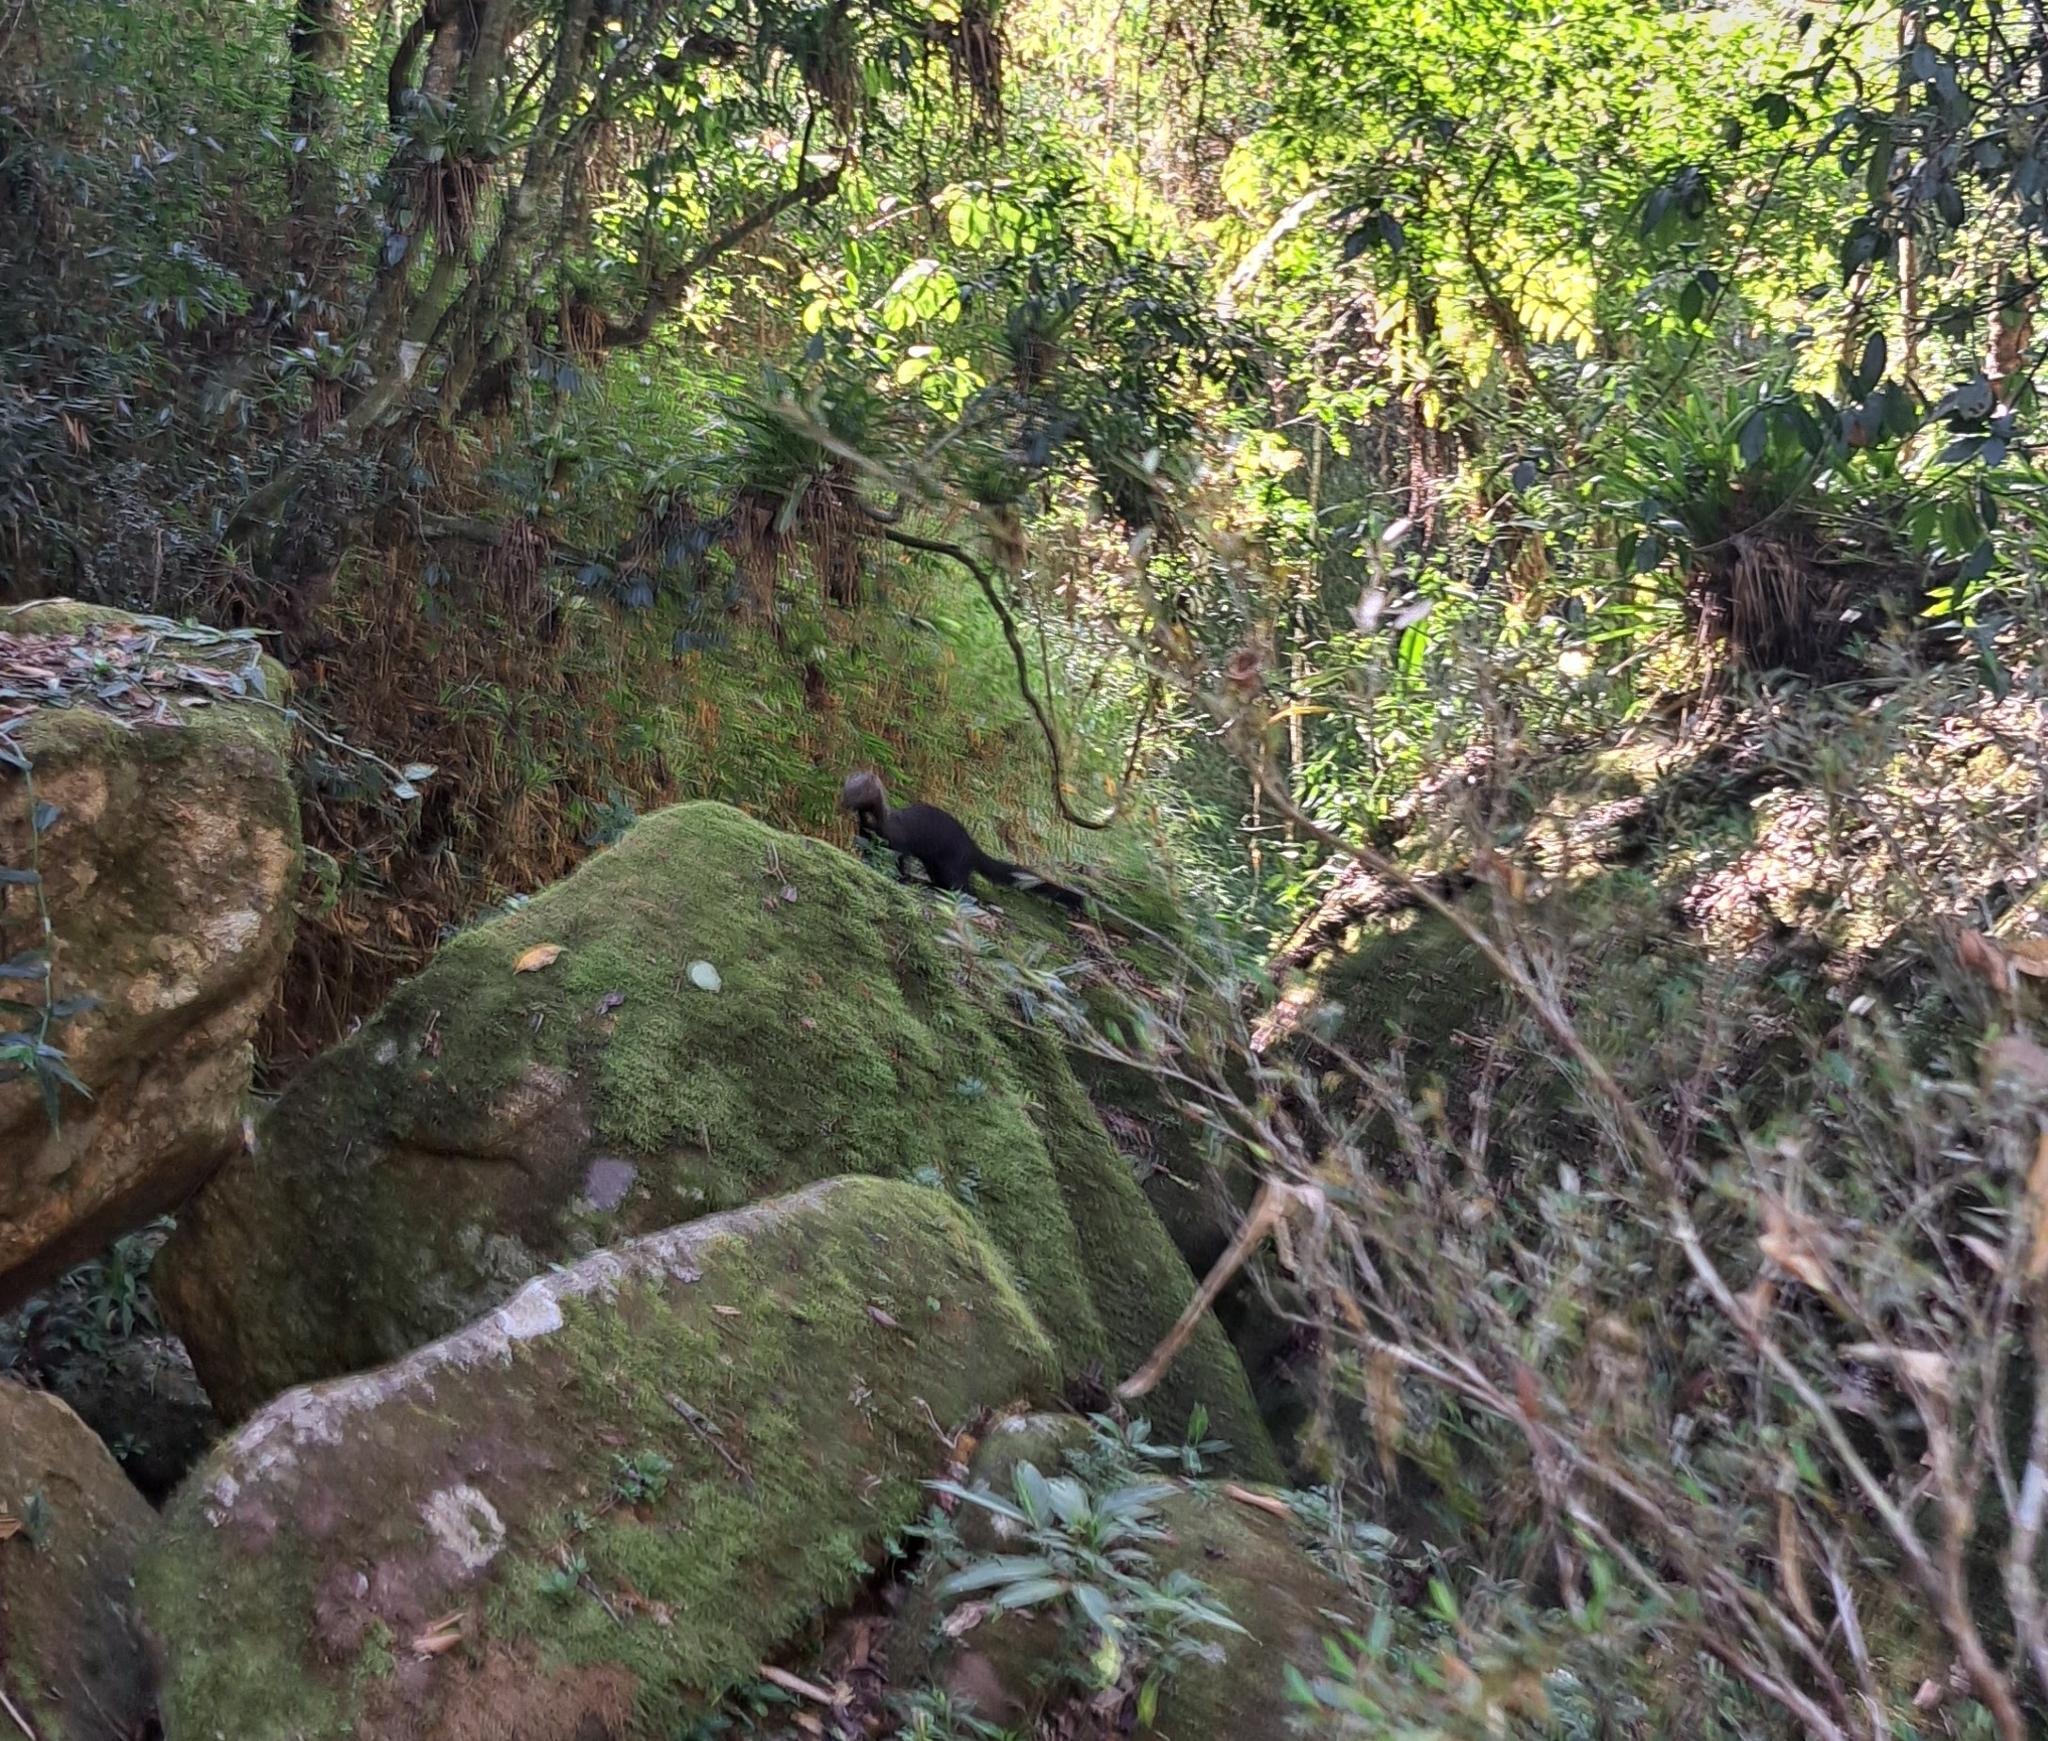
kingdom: Animalia
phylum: Chordata
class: Mammalia
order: Carnivora
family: Mustelidae
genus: Eira
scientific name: Eira barbara
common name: Tayra
